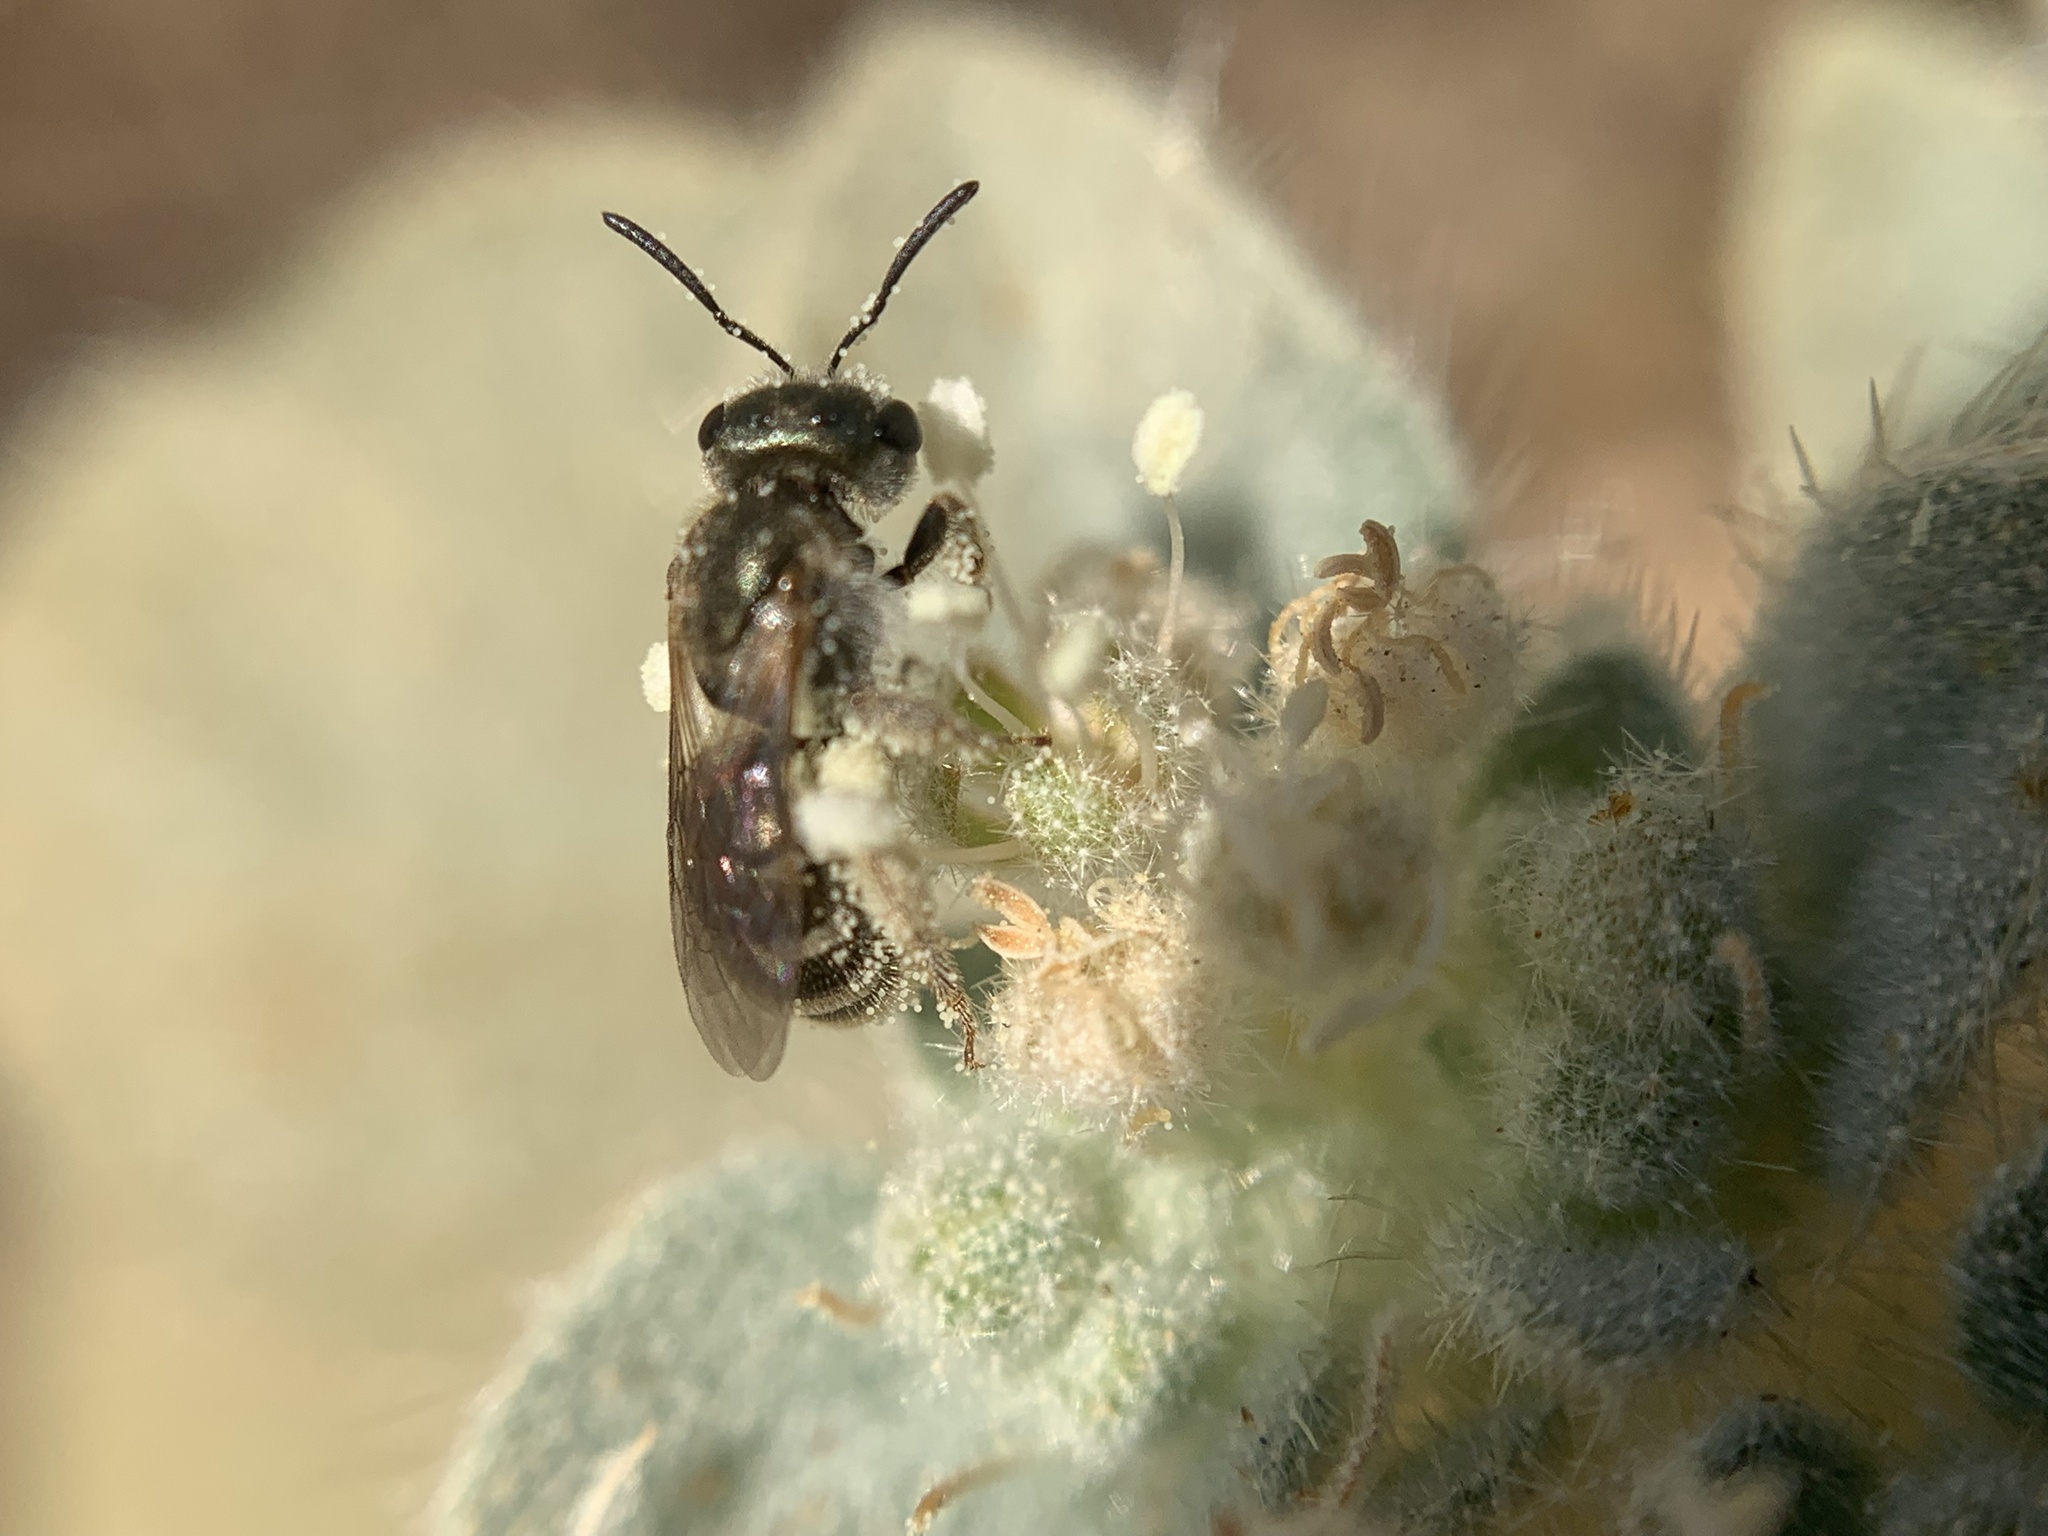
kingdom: Animalia
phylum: Arthropoda
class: Insecta
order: Hymenoptera
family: Halictidae
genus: Halictus
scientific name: Halictus tripartitus
